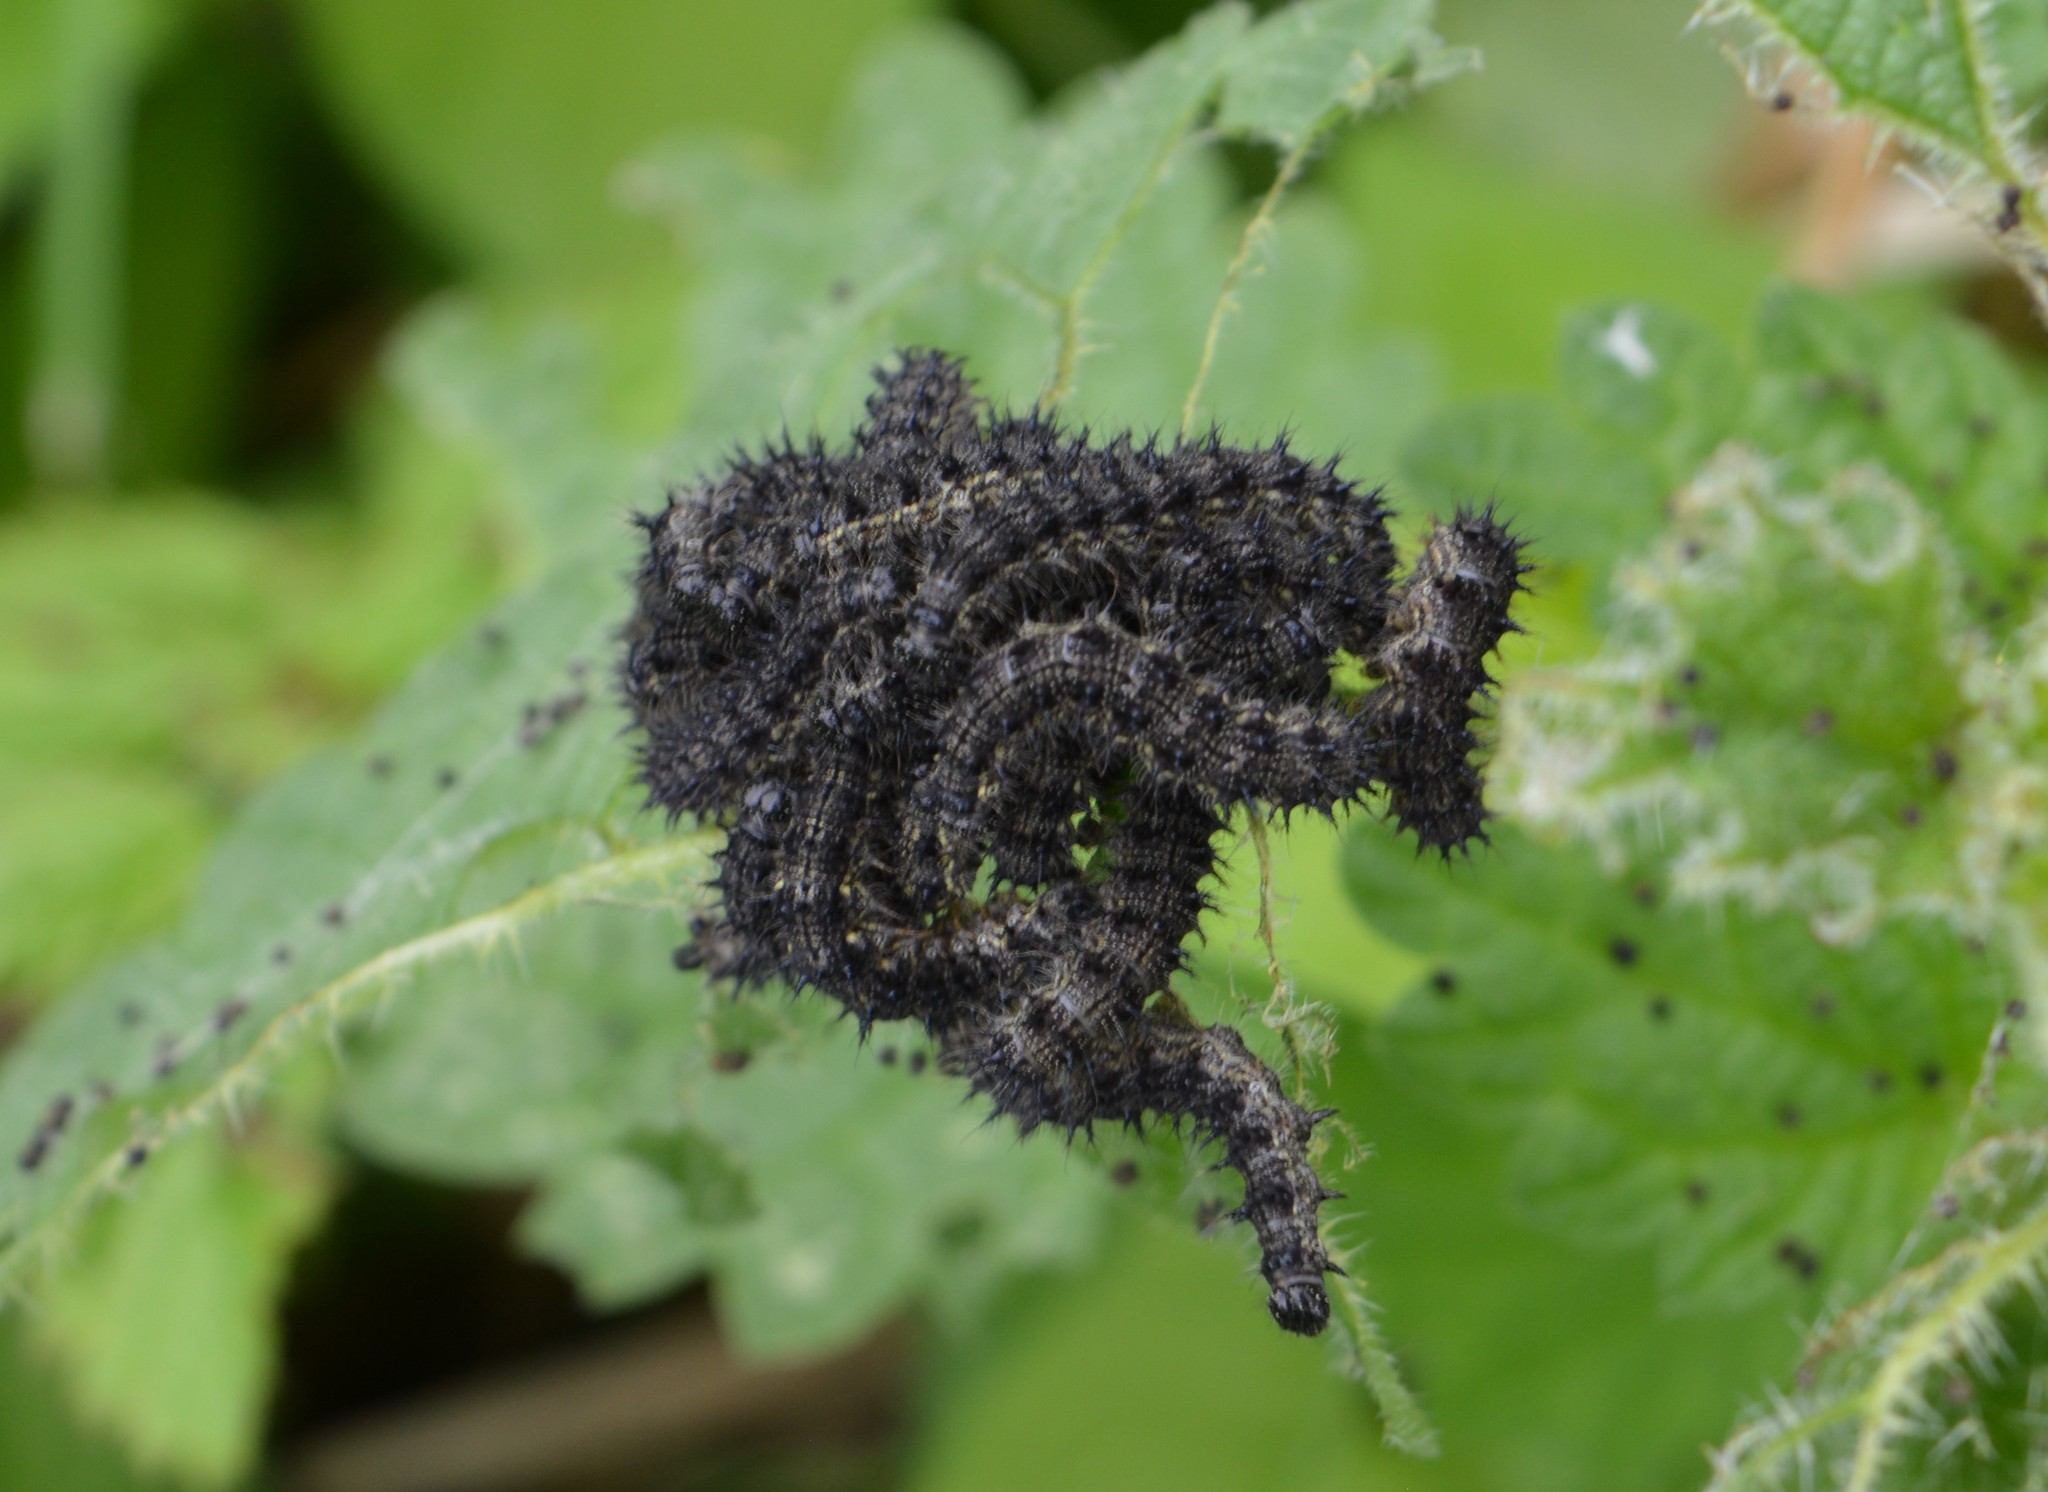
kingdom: Animalia
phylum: Arthropoda
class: Insecta
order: Lepidoptera
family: Nymphalidae
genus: Aglais
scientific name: Aglais urticae
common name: Small tortoiseshell
